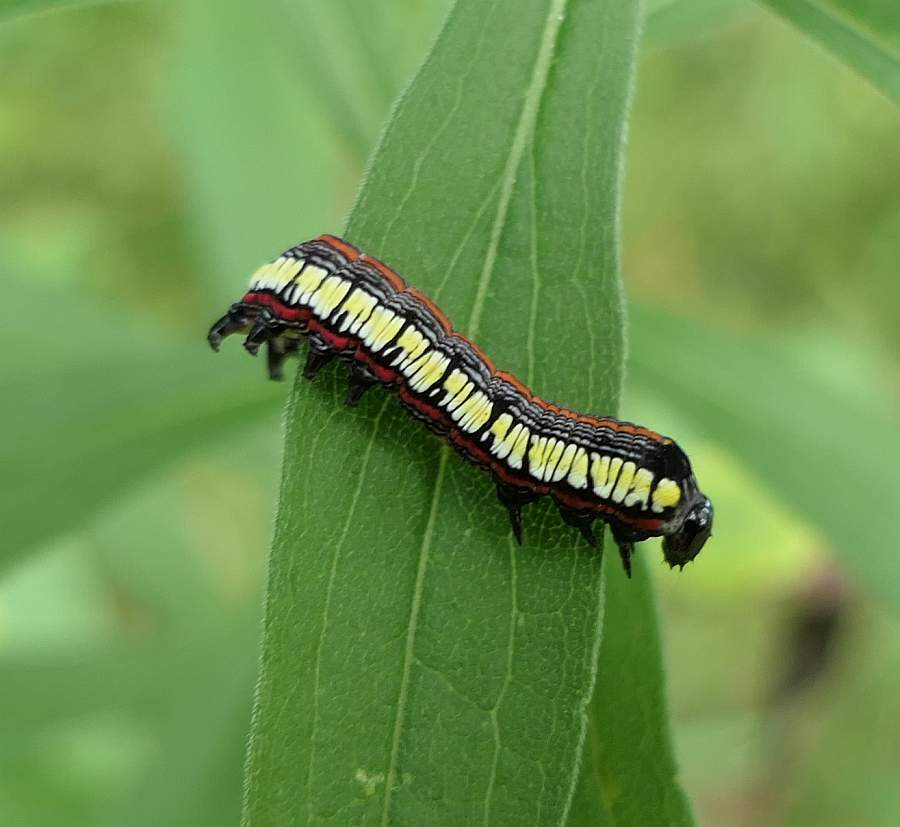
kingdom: Animalia
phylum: Arthropoda
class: Insecta
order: Lepidoptera
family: Noctuidae
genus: Cucullia
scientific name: Cucullia convexipennis
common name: Brown-hooded owlet
